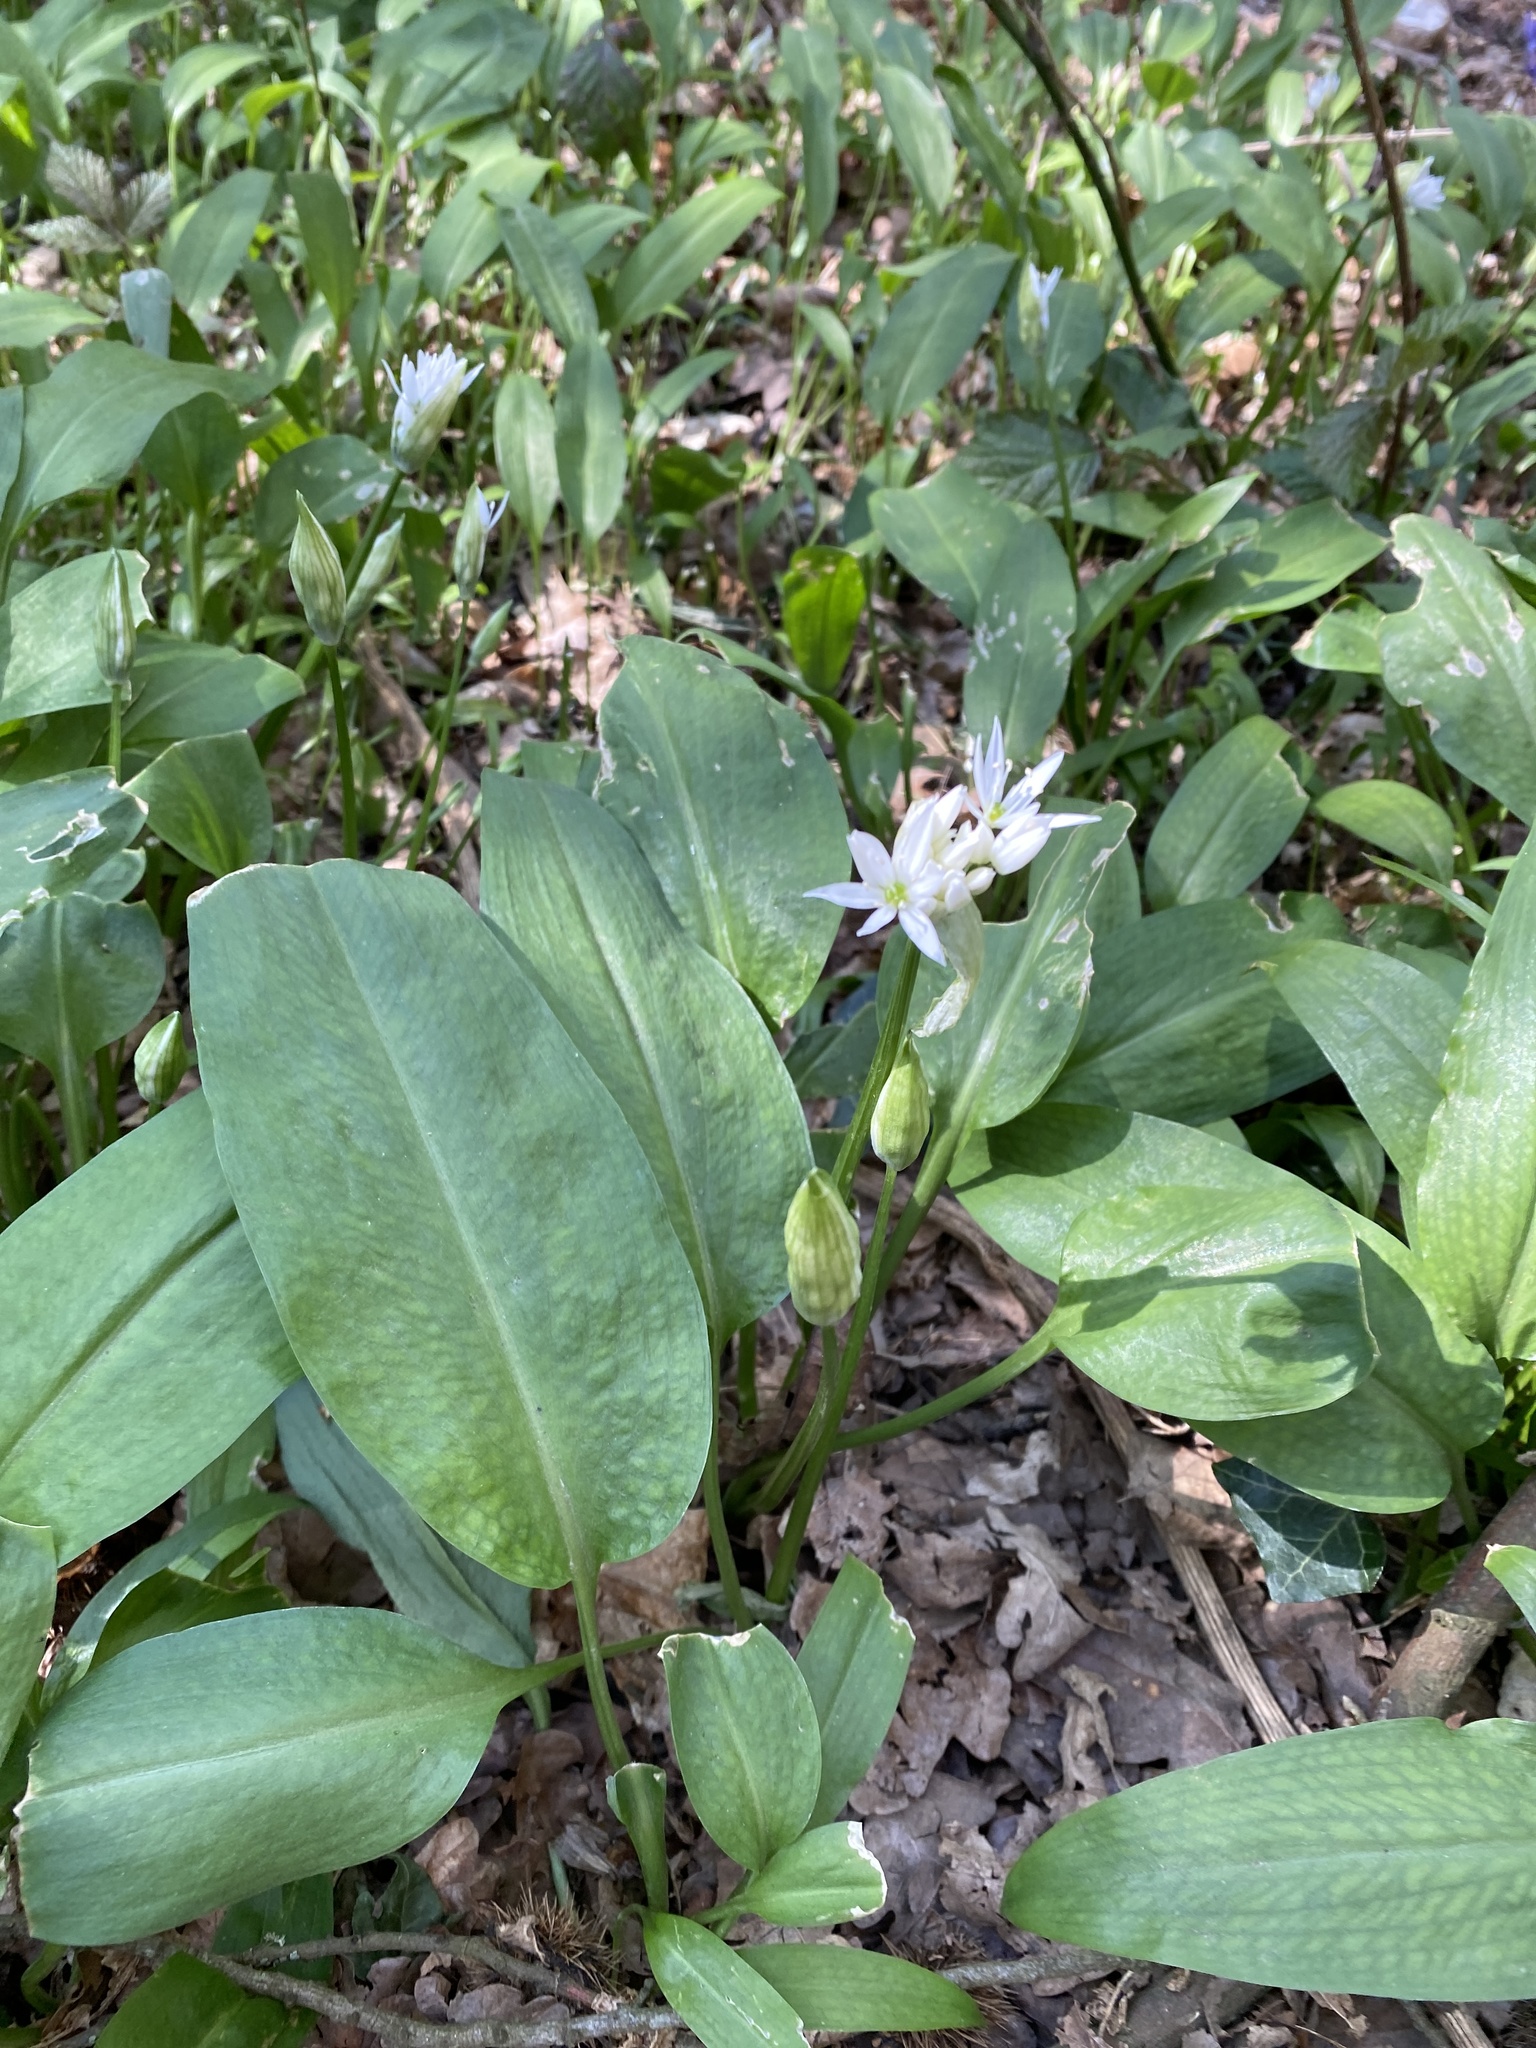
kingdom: Plantae
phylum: Tracheophyta
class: Liliopsida
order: Asparagales
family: Amaryllidaceae
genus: Allium
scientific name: Allium ursinum
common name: Ramsons
